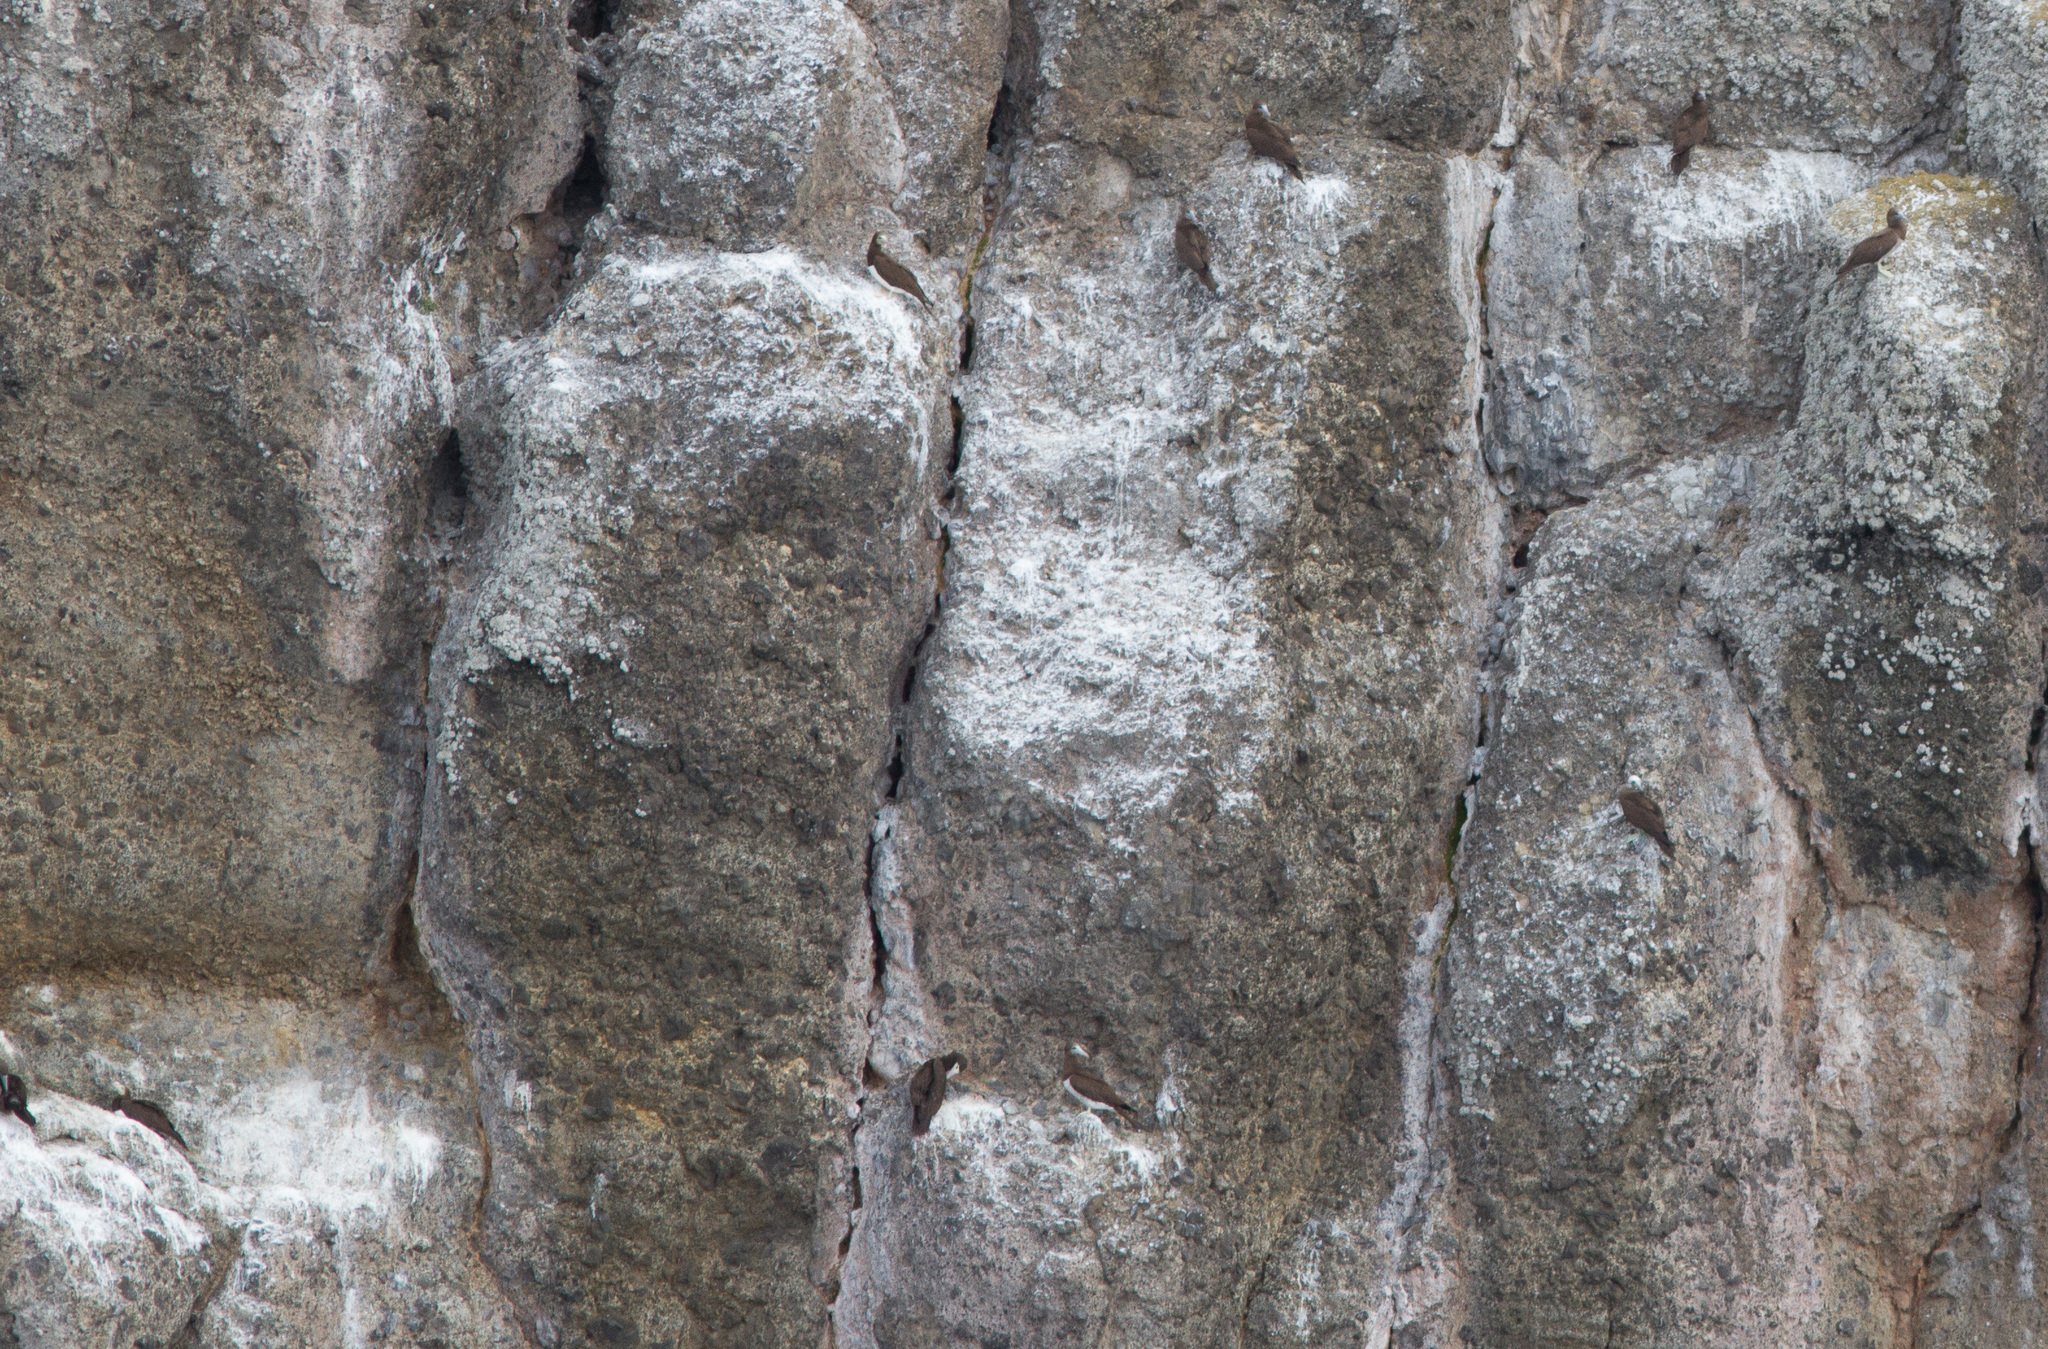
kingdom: Animalia
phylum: Chordata
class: Aves
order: Suliformes
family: Sulidae
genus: Sula
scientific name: Sula leucogaster
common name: Brown booby
